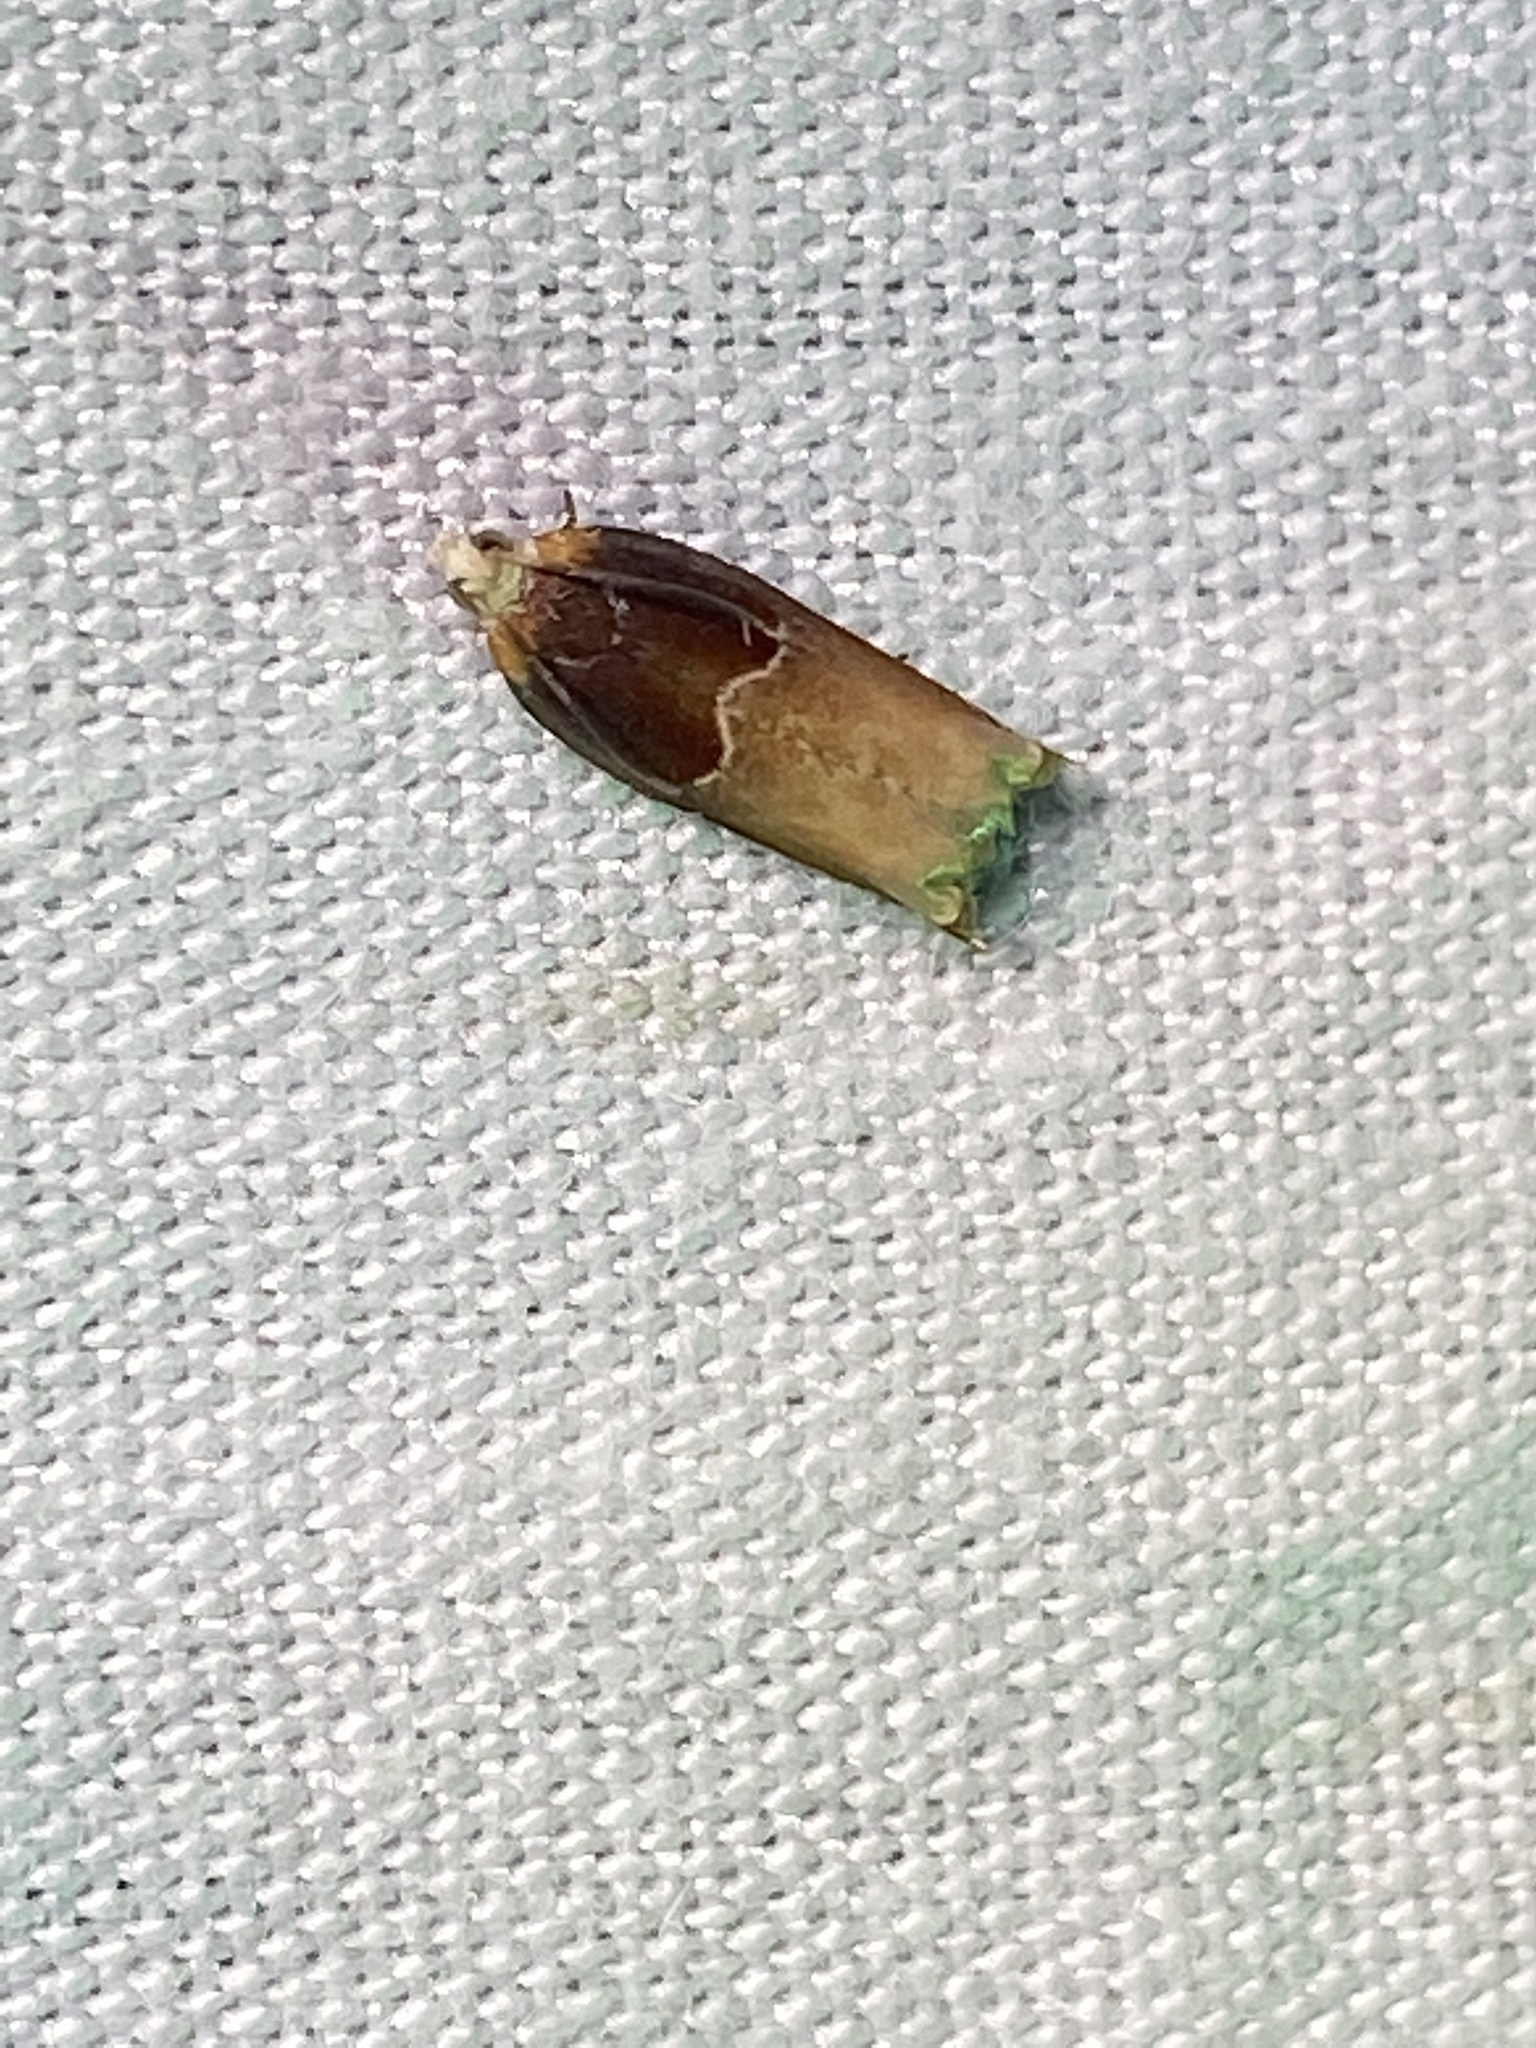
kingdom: Animalia
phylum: Arthropoda
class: Insecta
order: Lepidoptera
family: Tortricidae
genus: Ancylis
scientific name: Ancylis divisana
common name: Two-toned ancylis moth
